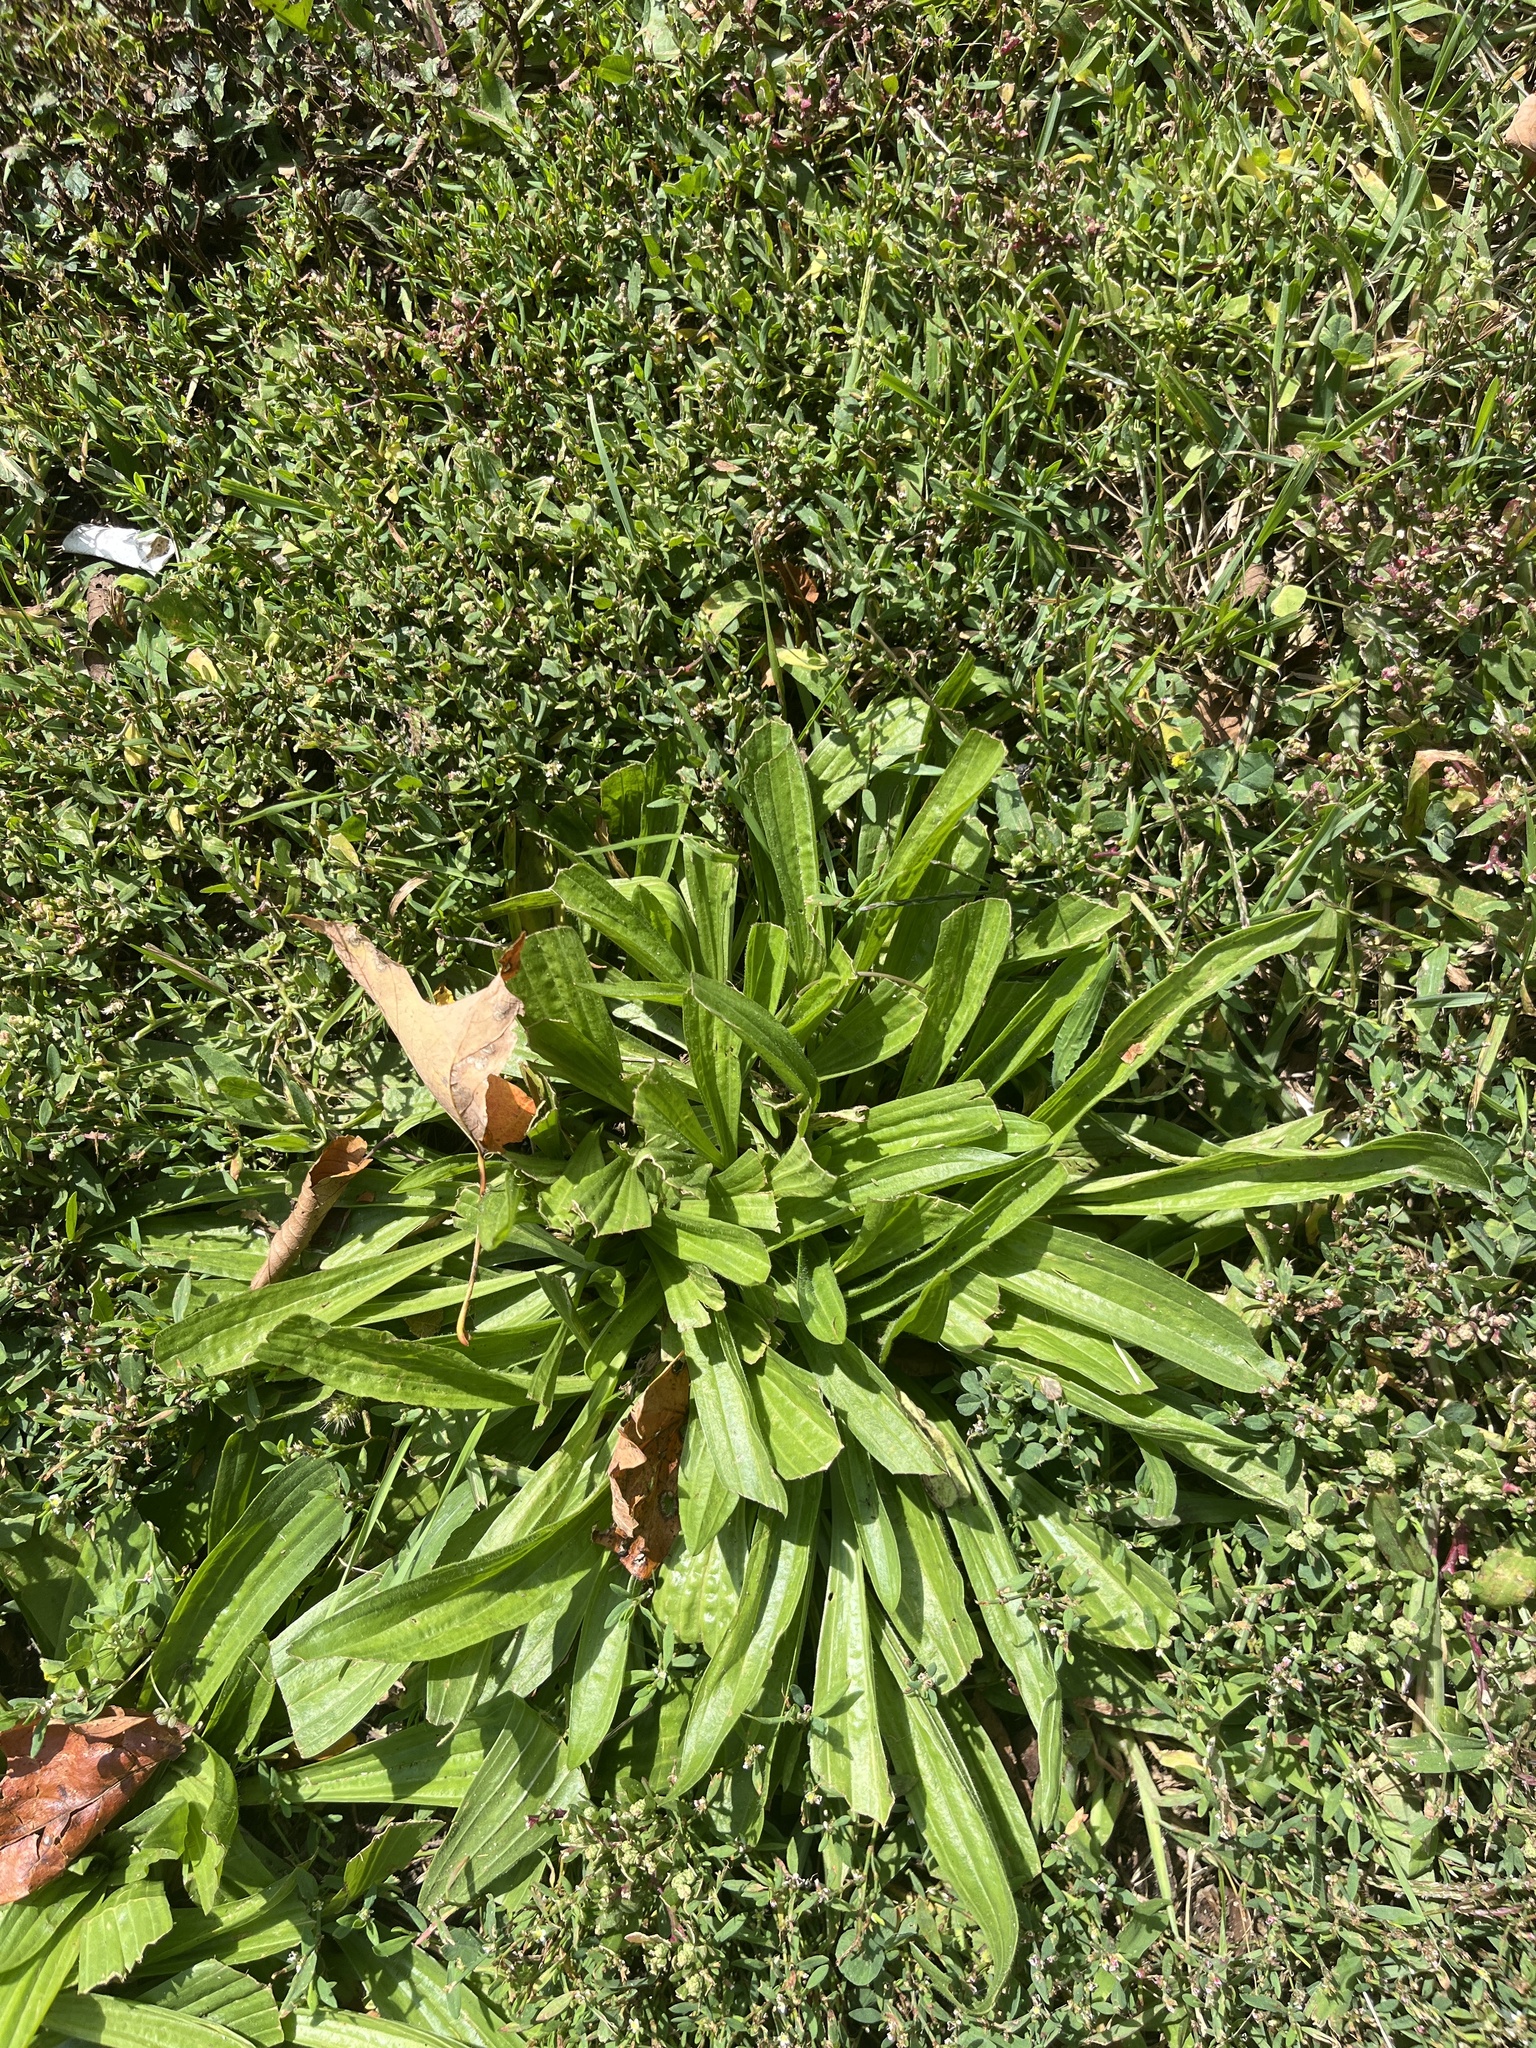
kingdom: Plantae
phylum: Tracheophyta
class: Magnoliopsida
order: Lamiales
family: Plantaginaceae
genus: Plantago
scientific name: Plantago lanceolata
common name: Ribwort plantain
